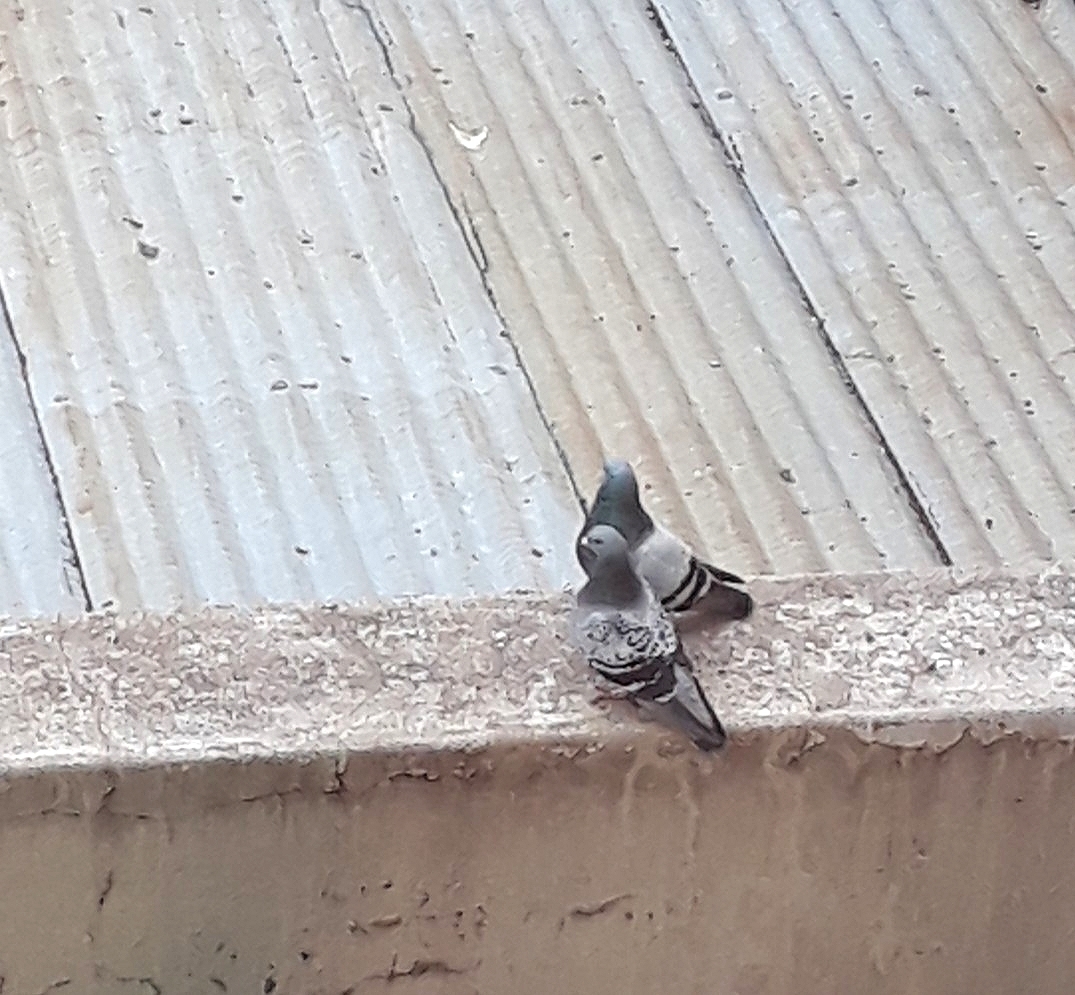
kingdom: Animalia
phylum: Chordata
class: Aves
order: Columbiformes
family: Columbidae
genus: Columba
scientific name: Columba livia
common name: Rock pigeon
